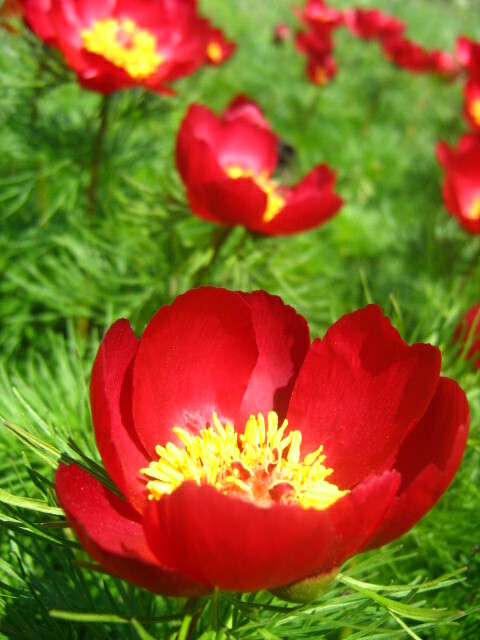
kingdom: Plantae
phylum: Tracheophyta
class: Magnoliopsida
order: Saxifragales
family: Paeoniaceae
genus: Paeonia
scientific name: Paeonia tenuifolia
